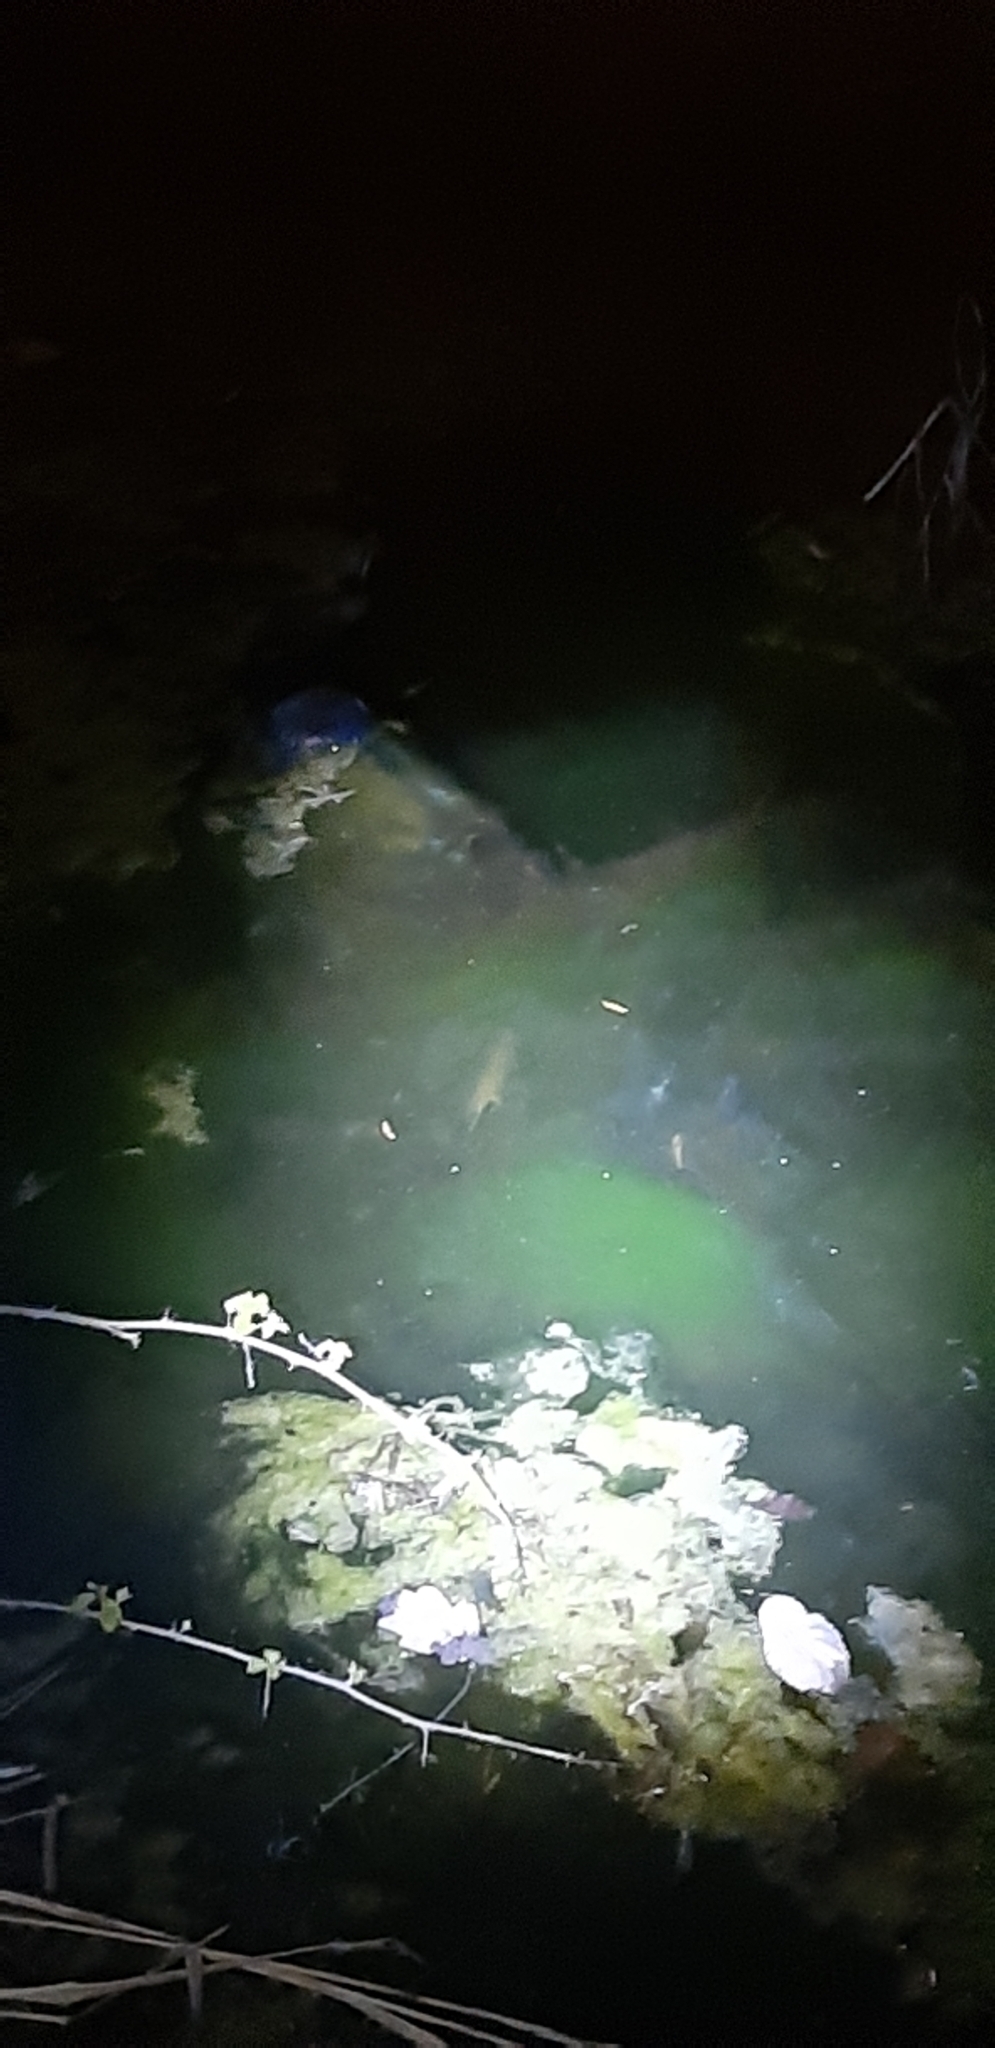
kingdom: Animalia
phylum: Chordata
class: Amphibia
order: Caudata
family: Salamandridae
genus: Triturus
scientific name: Triturus carnifex
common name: Italian crested newt
